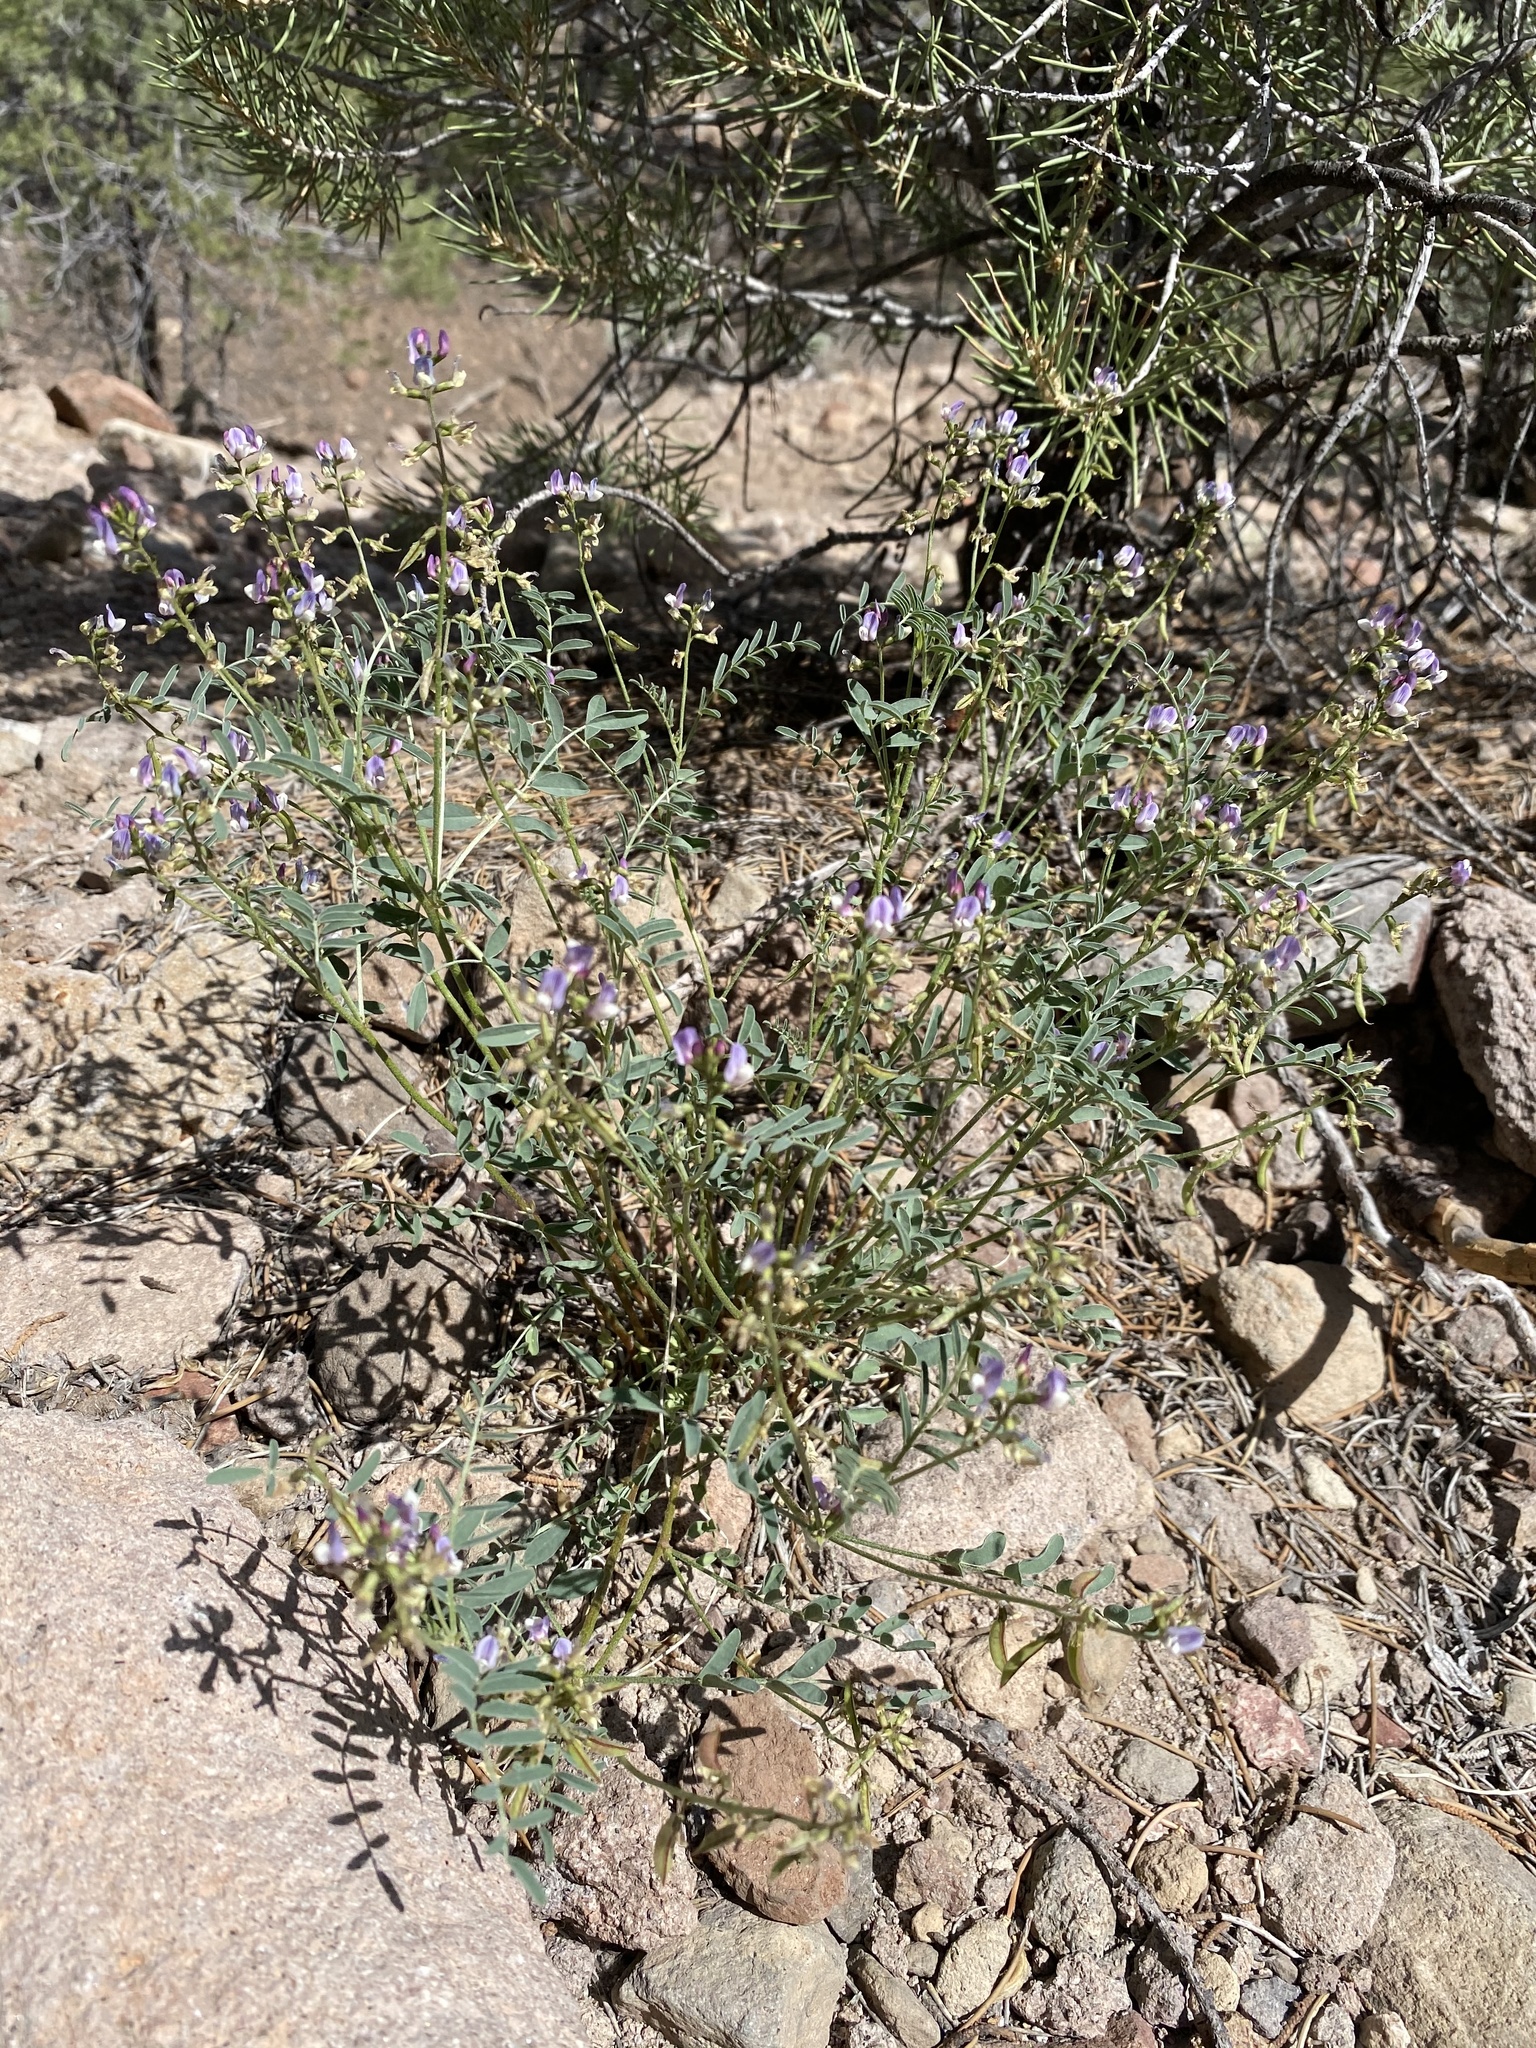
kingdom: Plantae
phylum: Tracheophyta
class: Magnoliopsida
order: Fabales
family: Fabaceae
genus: Astragalus
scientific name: Astragalus straturensis
